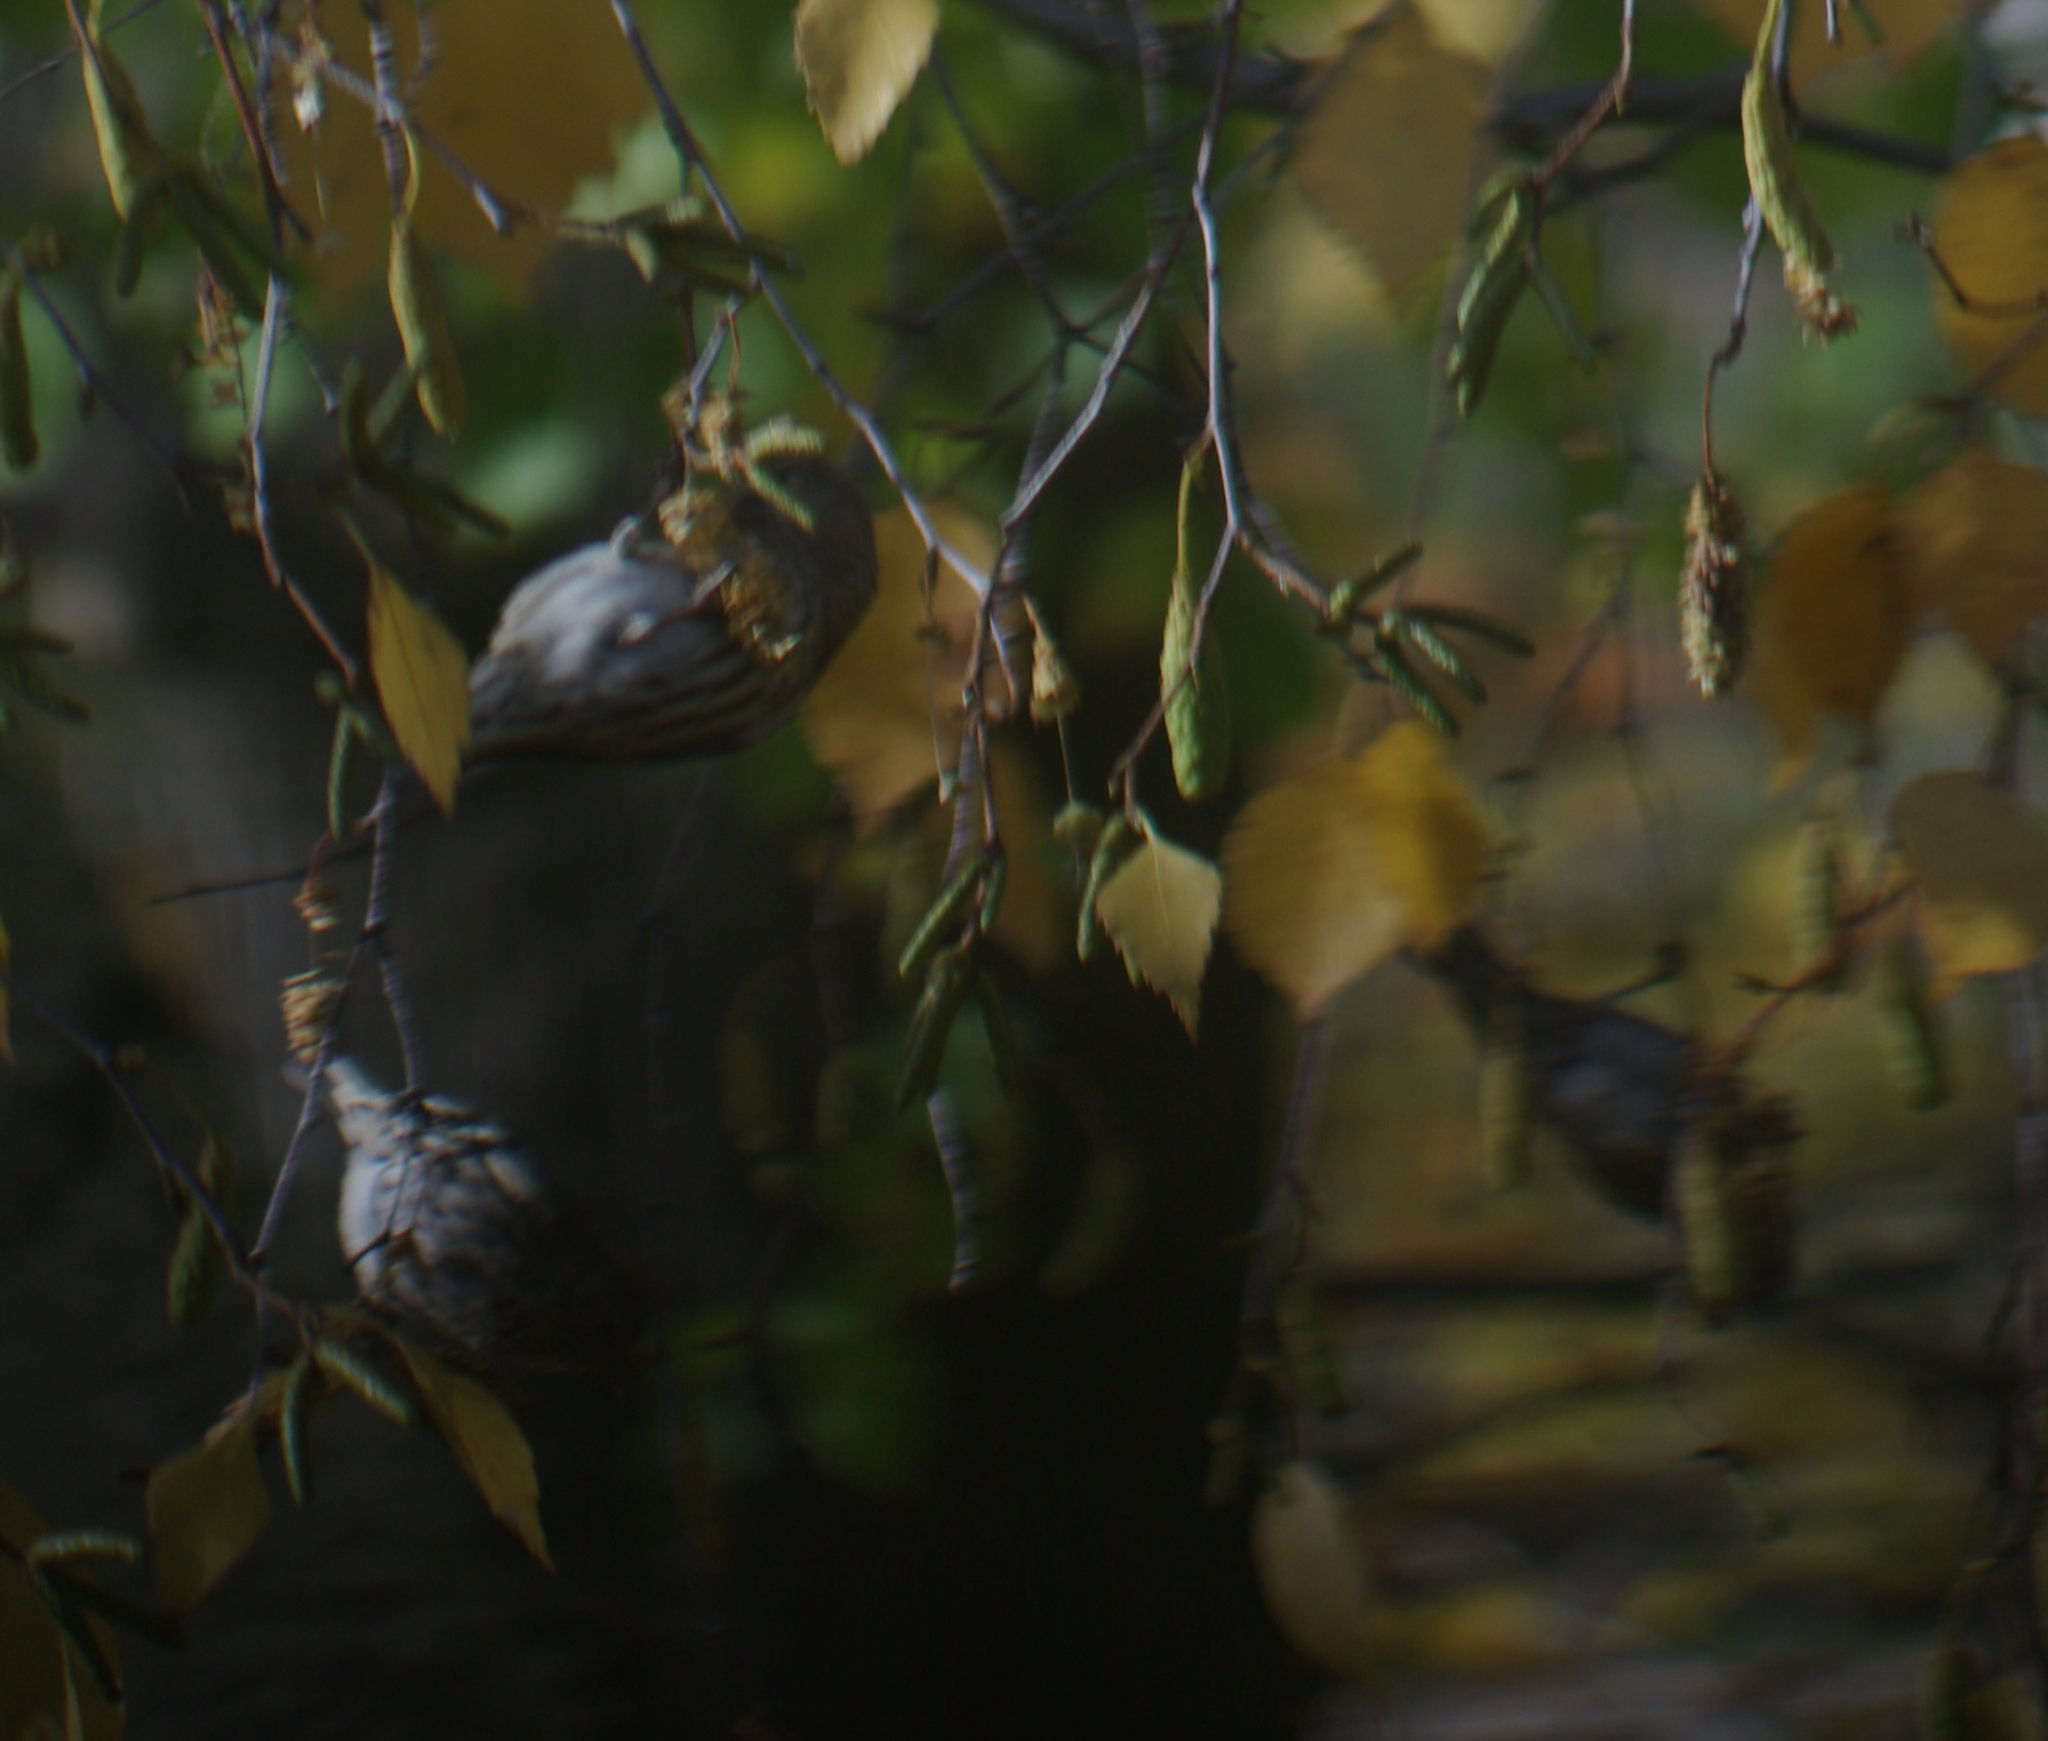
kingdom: Animalia
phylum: Chordata
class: Aves
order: Passeriformes
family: Fringillidae
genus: Spinus
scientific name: Spinus pinus
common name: Pine siskin
